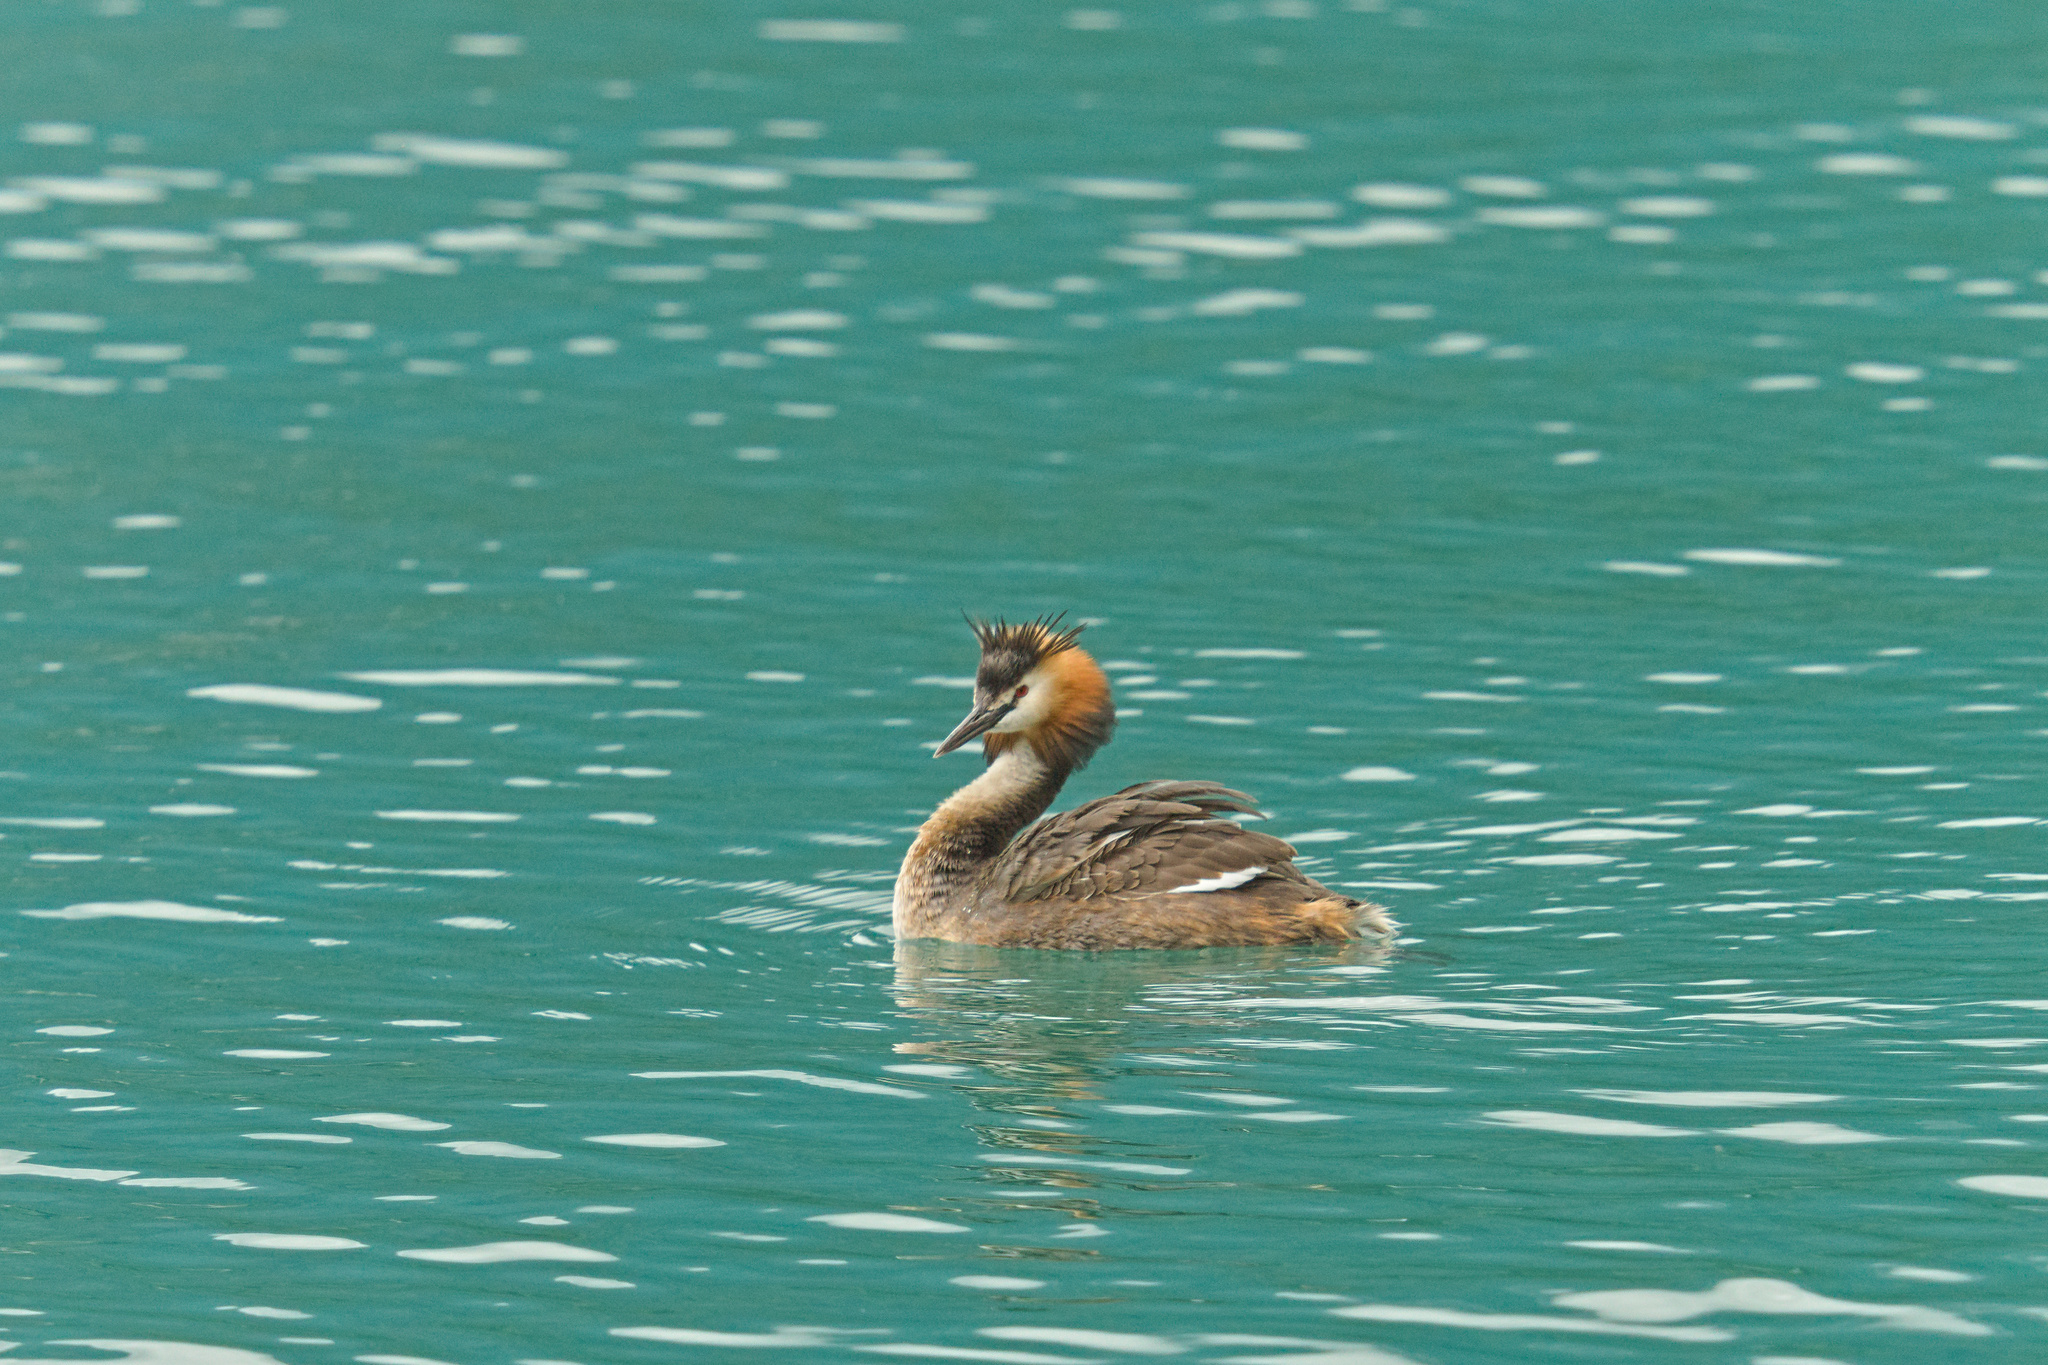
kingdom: Animalia
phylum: Chordata
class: Aves
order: Podicipediformes
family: Podicipedidae
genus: Podiceps
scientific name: Podiceps cristatus
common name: Great crested grebe
